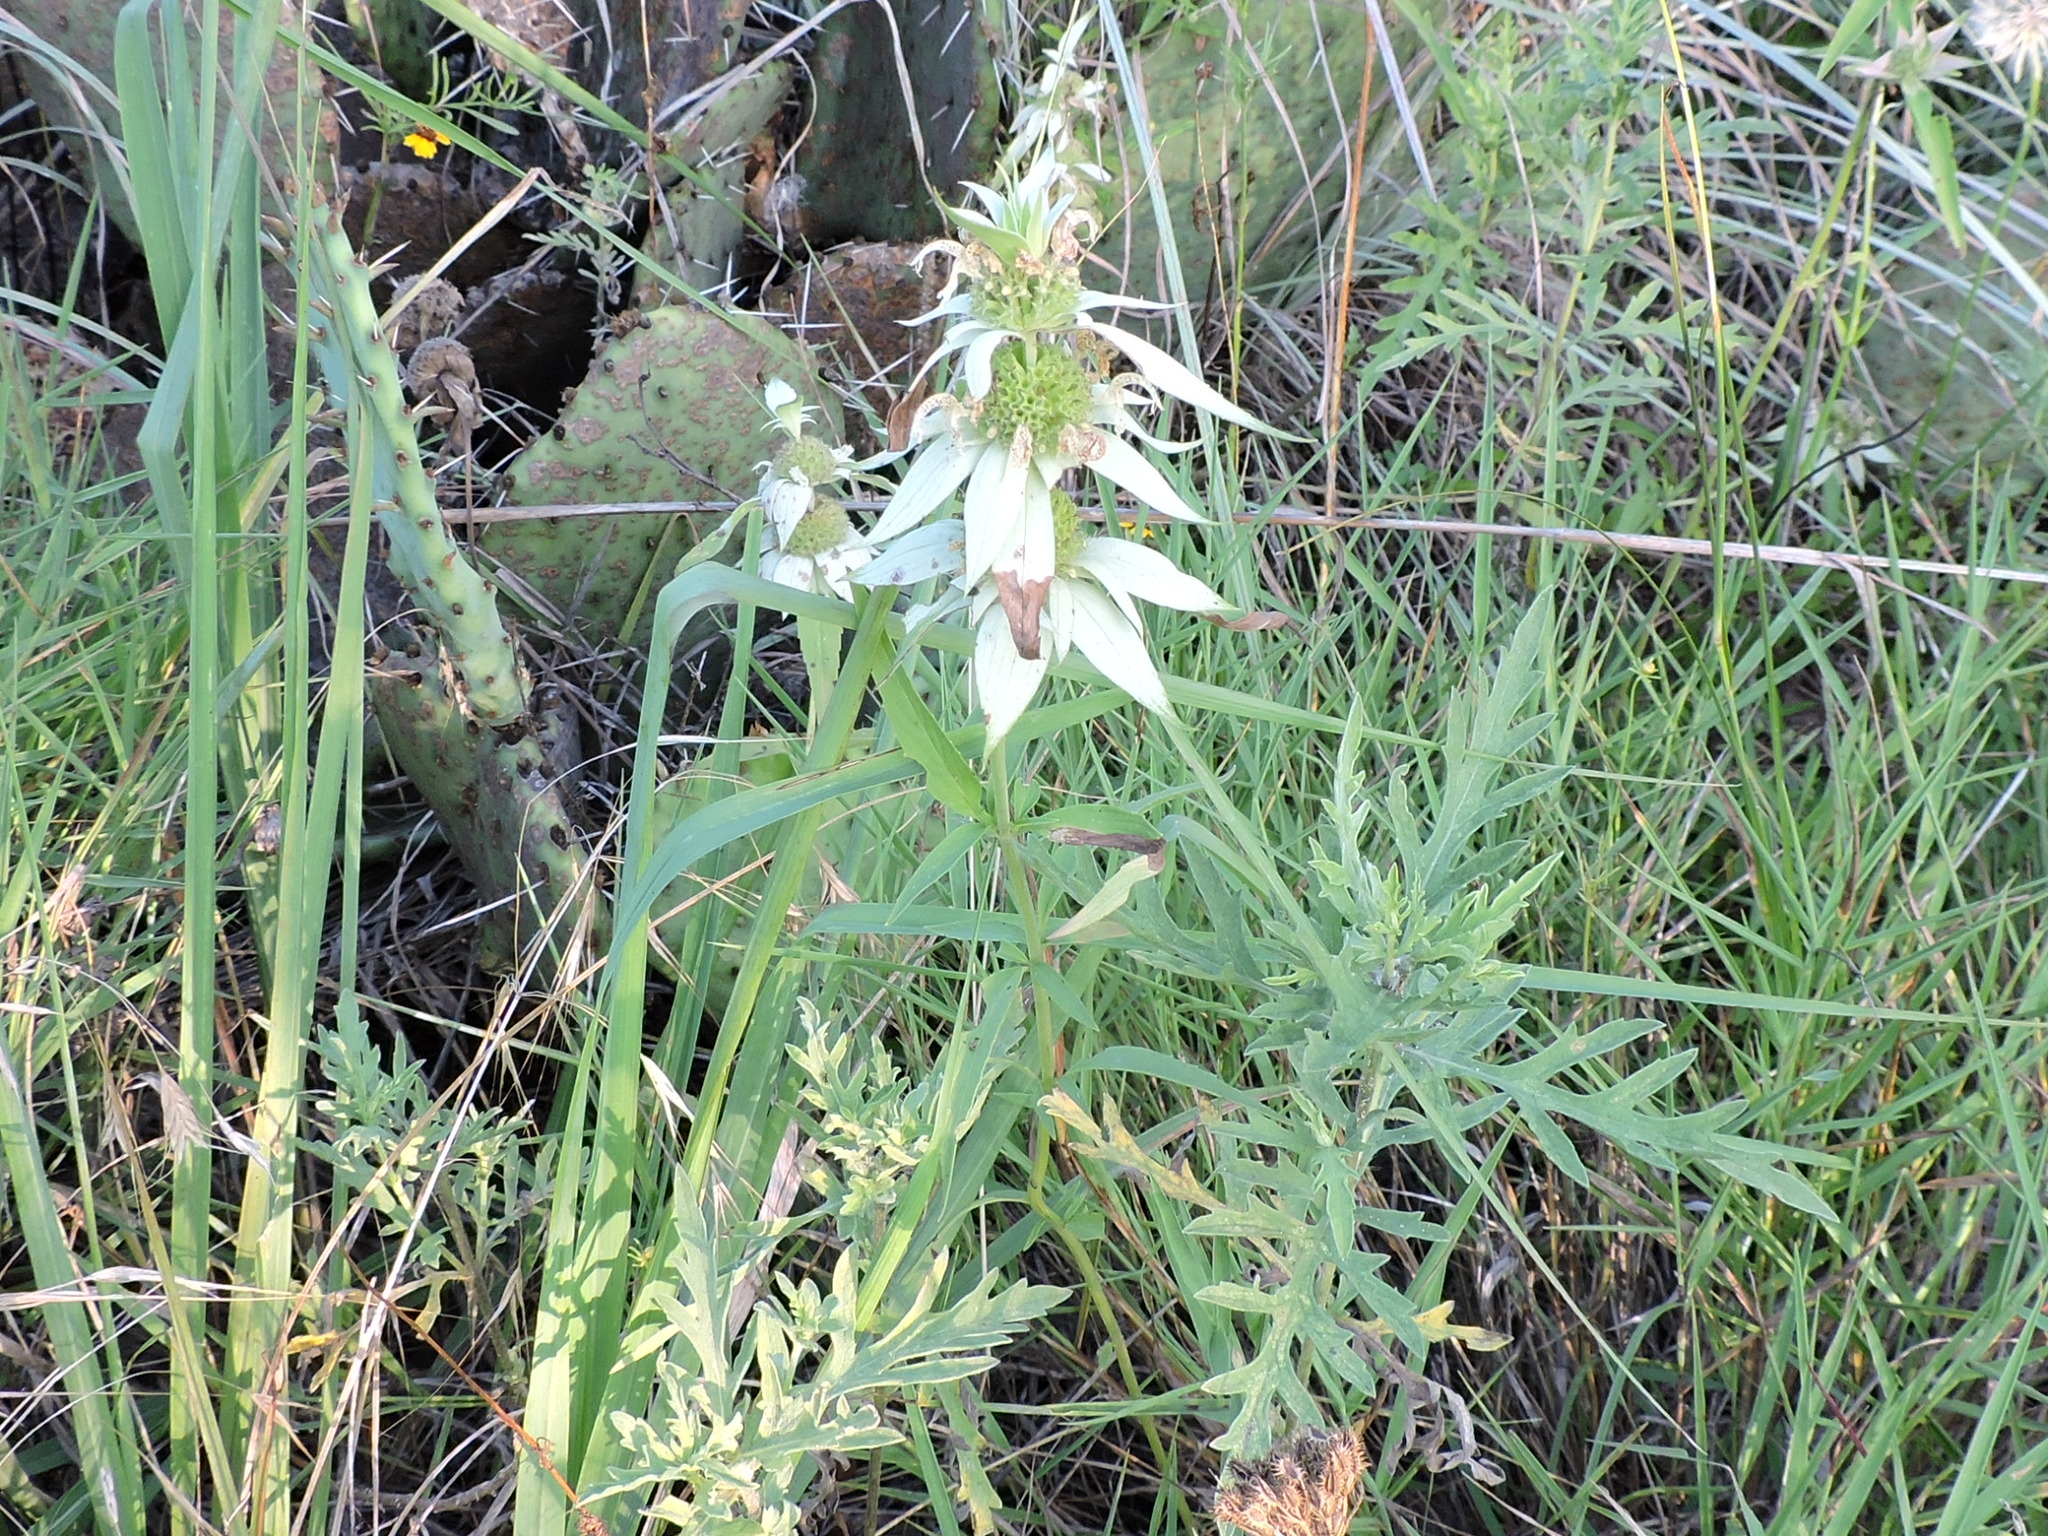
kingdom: Plantae
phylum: Tracheophyta
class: Magnoliopsida
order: Lamiales
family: Lamiaceae
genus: Monarda
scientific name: Monarda punctata
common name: Dotted monarda
